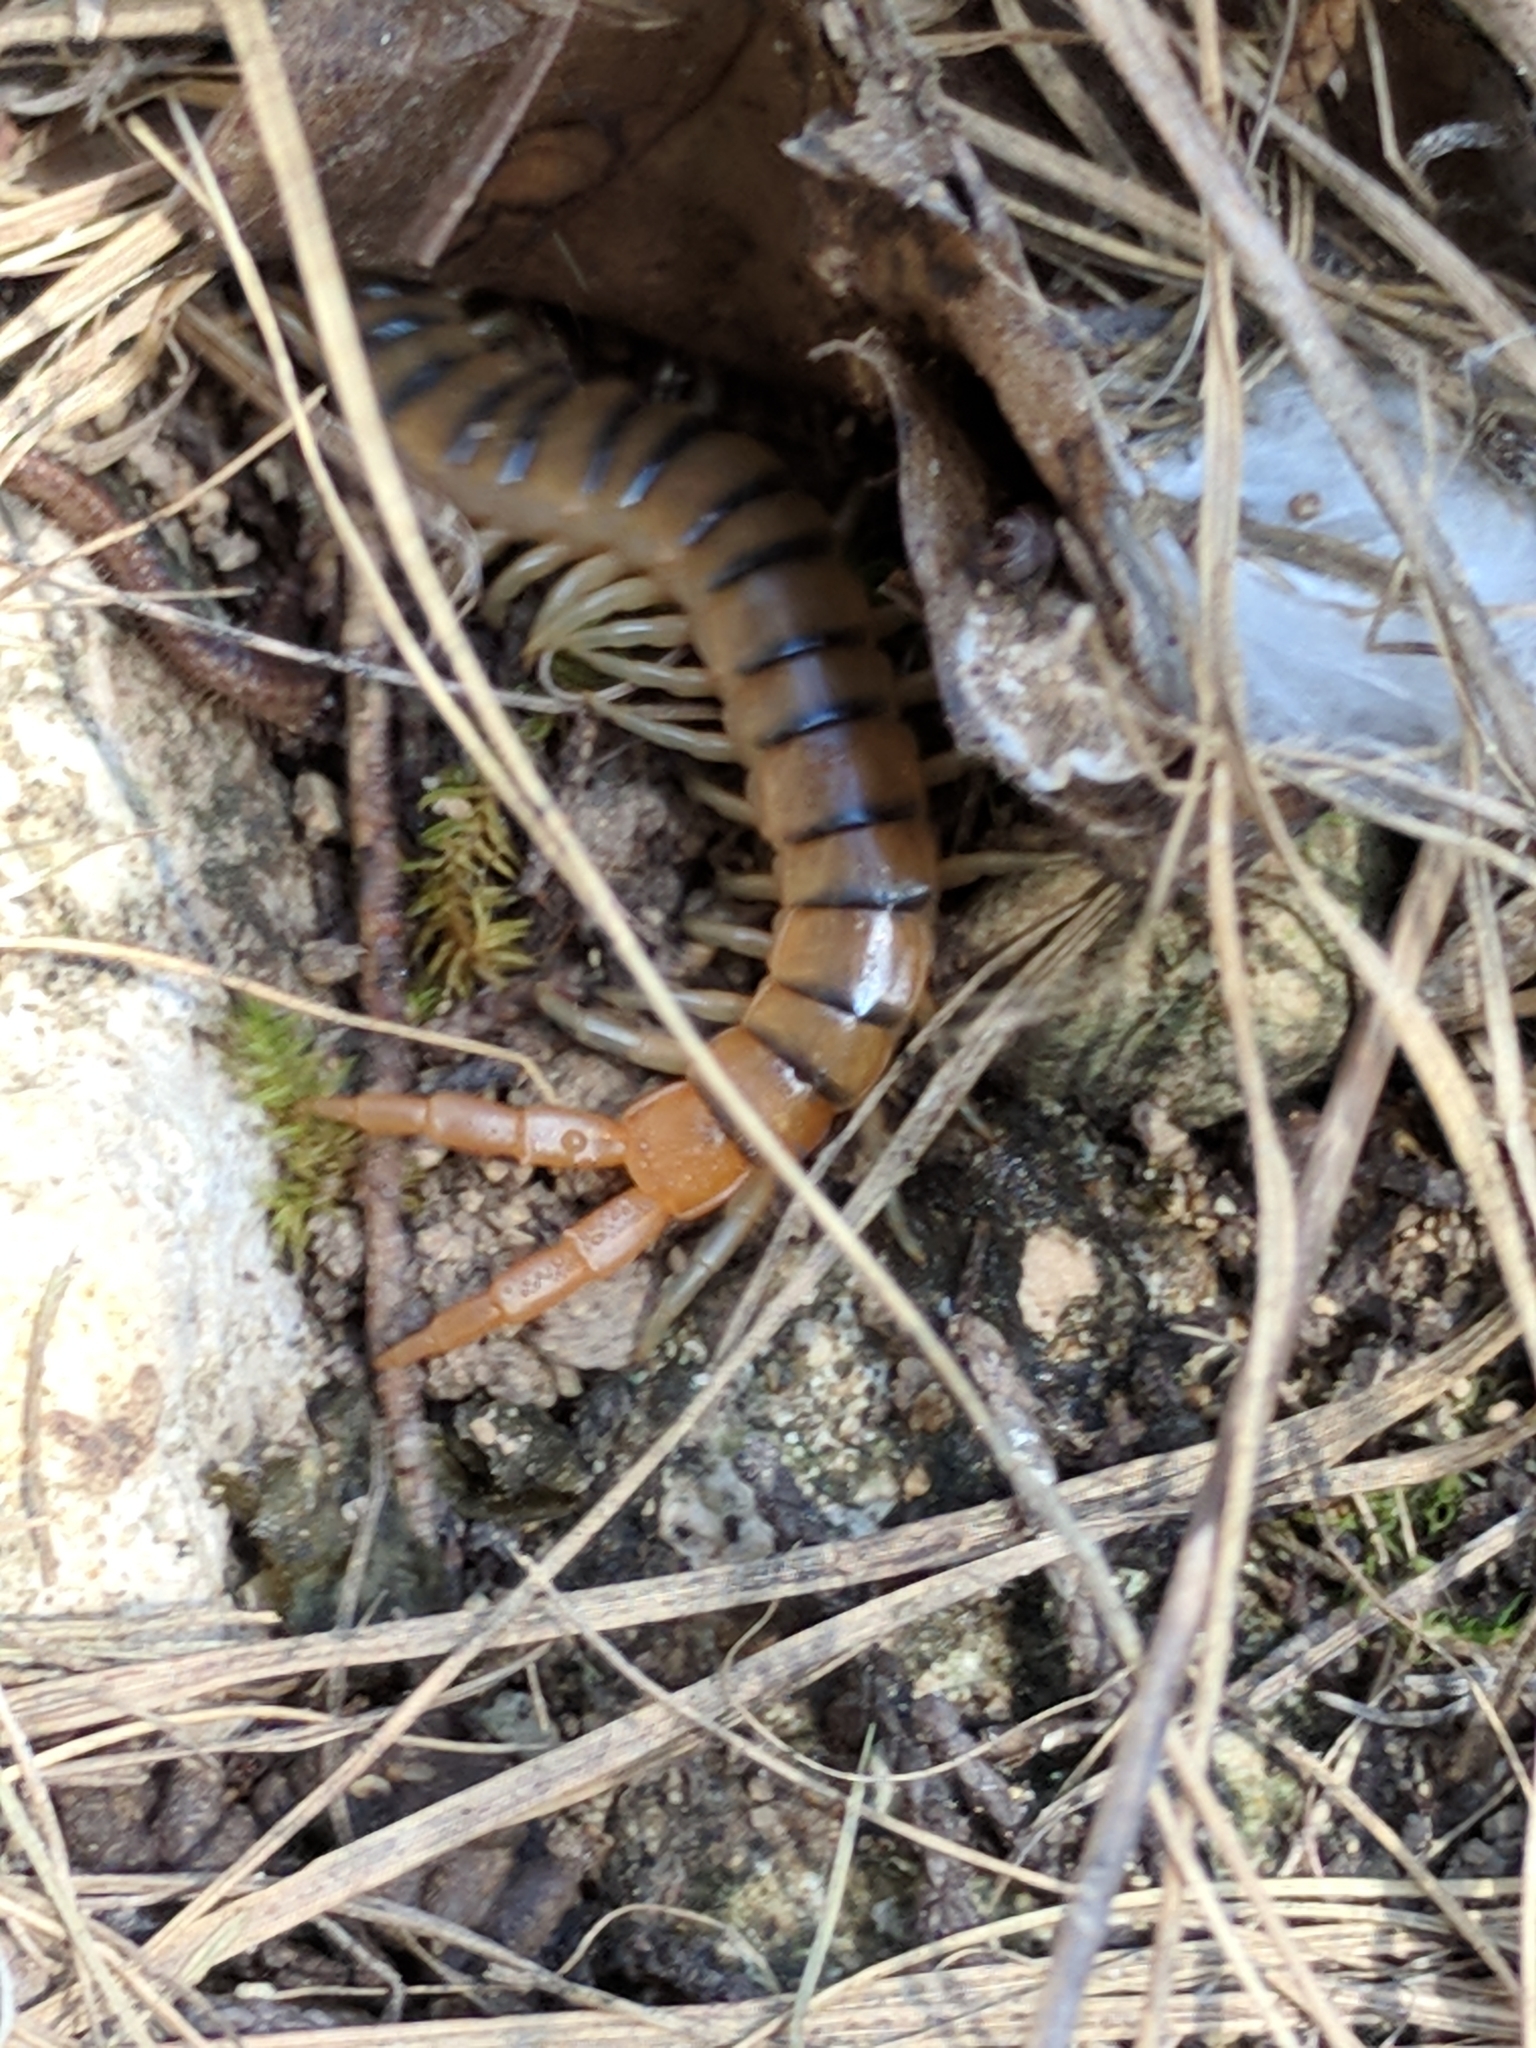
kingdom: Animalia
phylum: Arthropoda
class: Chilopoda
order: Scolopendromorpha
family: Scolopendridae
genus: Scolopendra
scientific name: Scolopendra polymorpha
